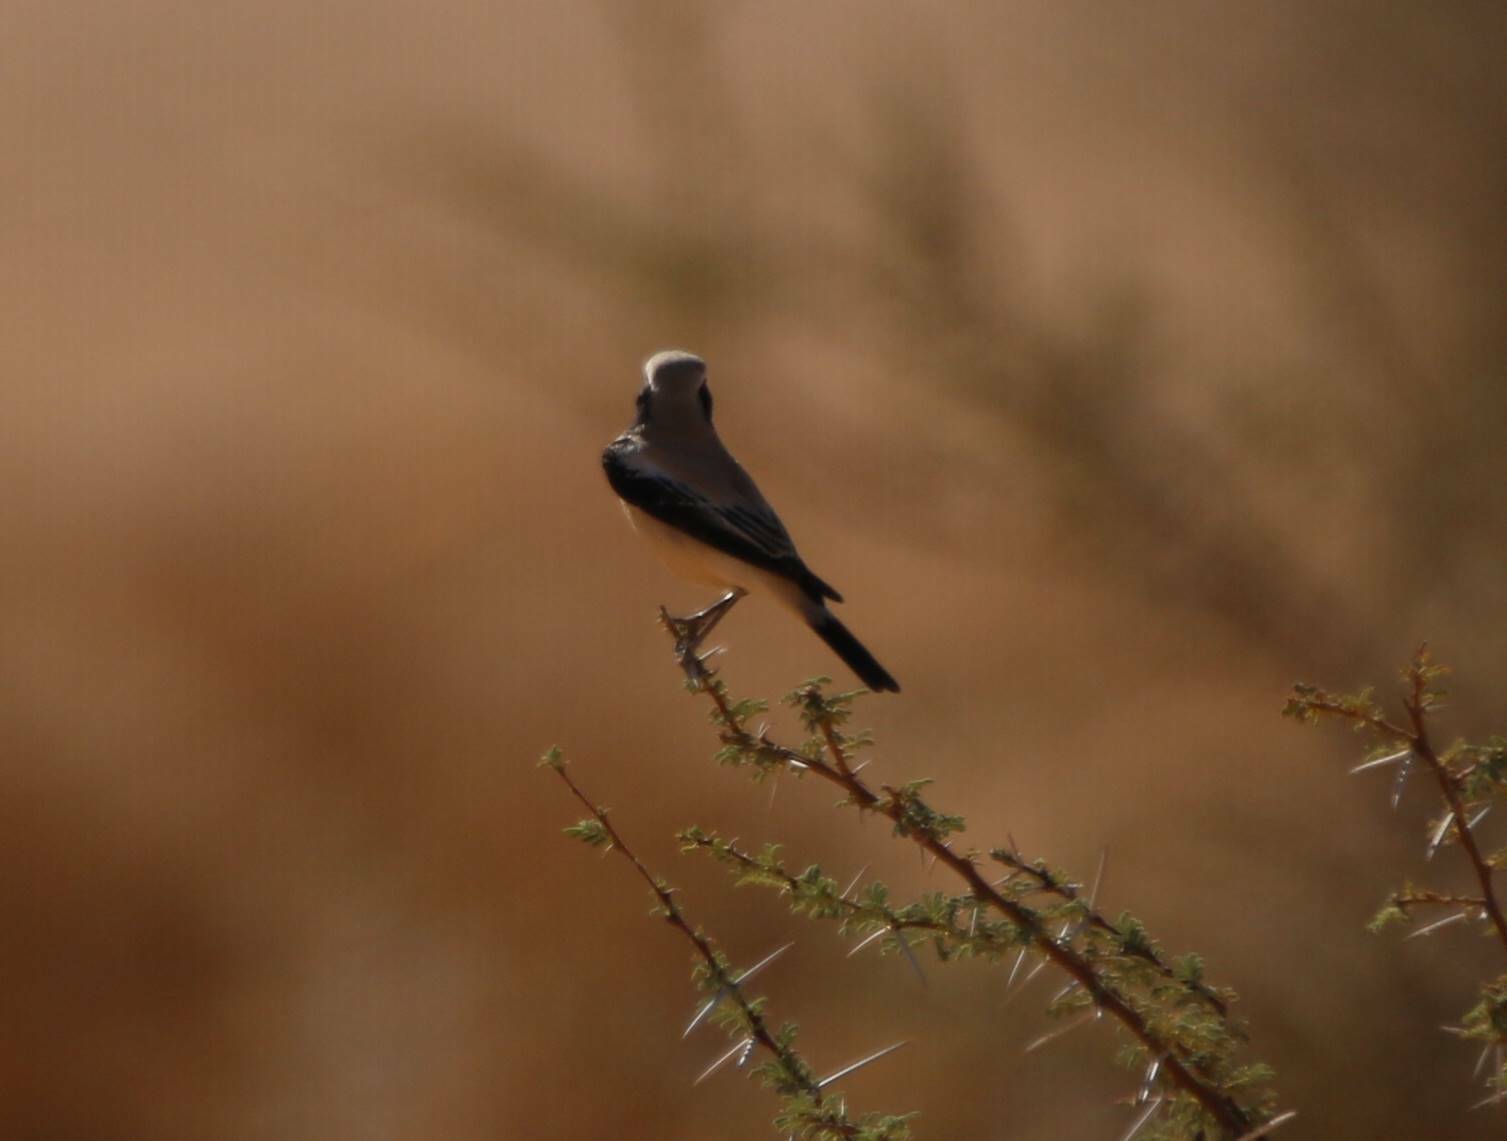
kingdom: Animalia
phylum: Chordata
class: Aves
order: Passeriformes
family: Muscicapidae
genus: Oenanthe
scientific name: Oenanthe deserti
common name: Desert wheatear
